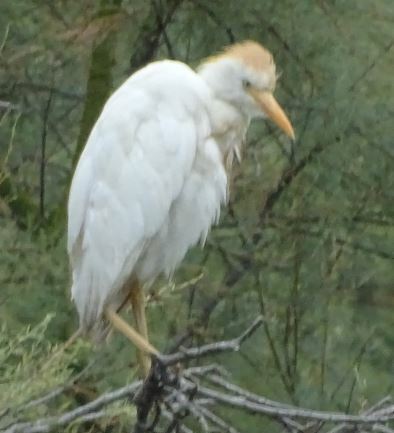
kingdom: Animalia
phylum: Chordata
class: Aves
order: Pelecaniformes
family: Ardeidae
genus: Bubulcus
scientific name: Bubulcus ibis
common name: Cattle egret
